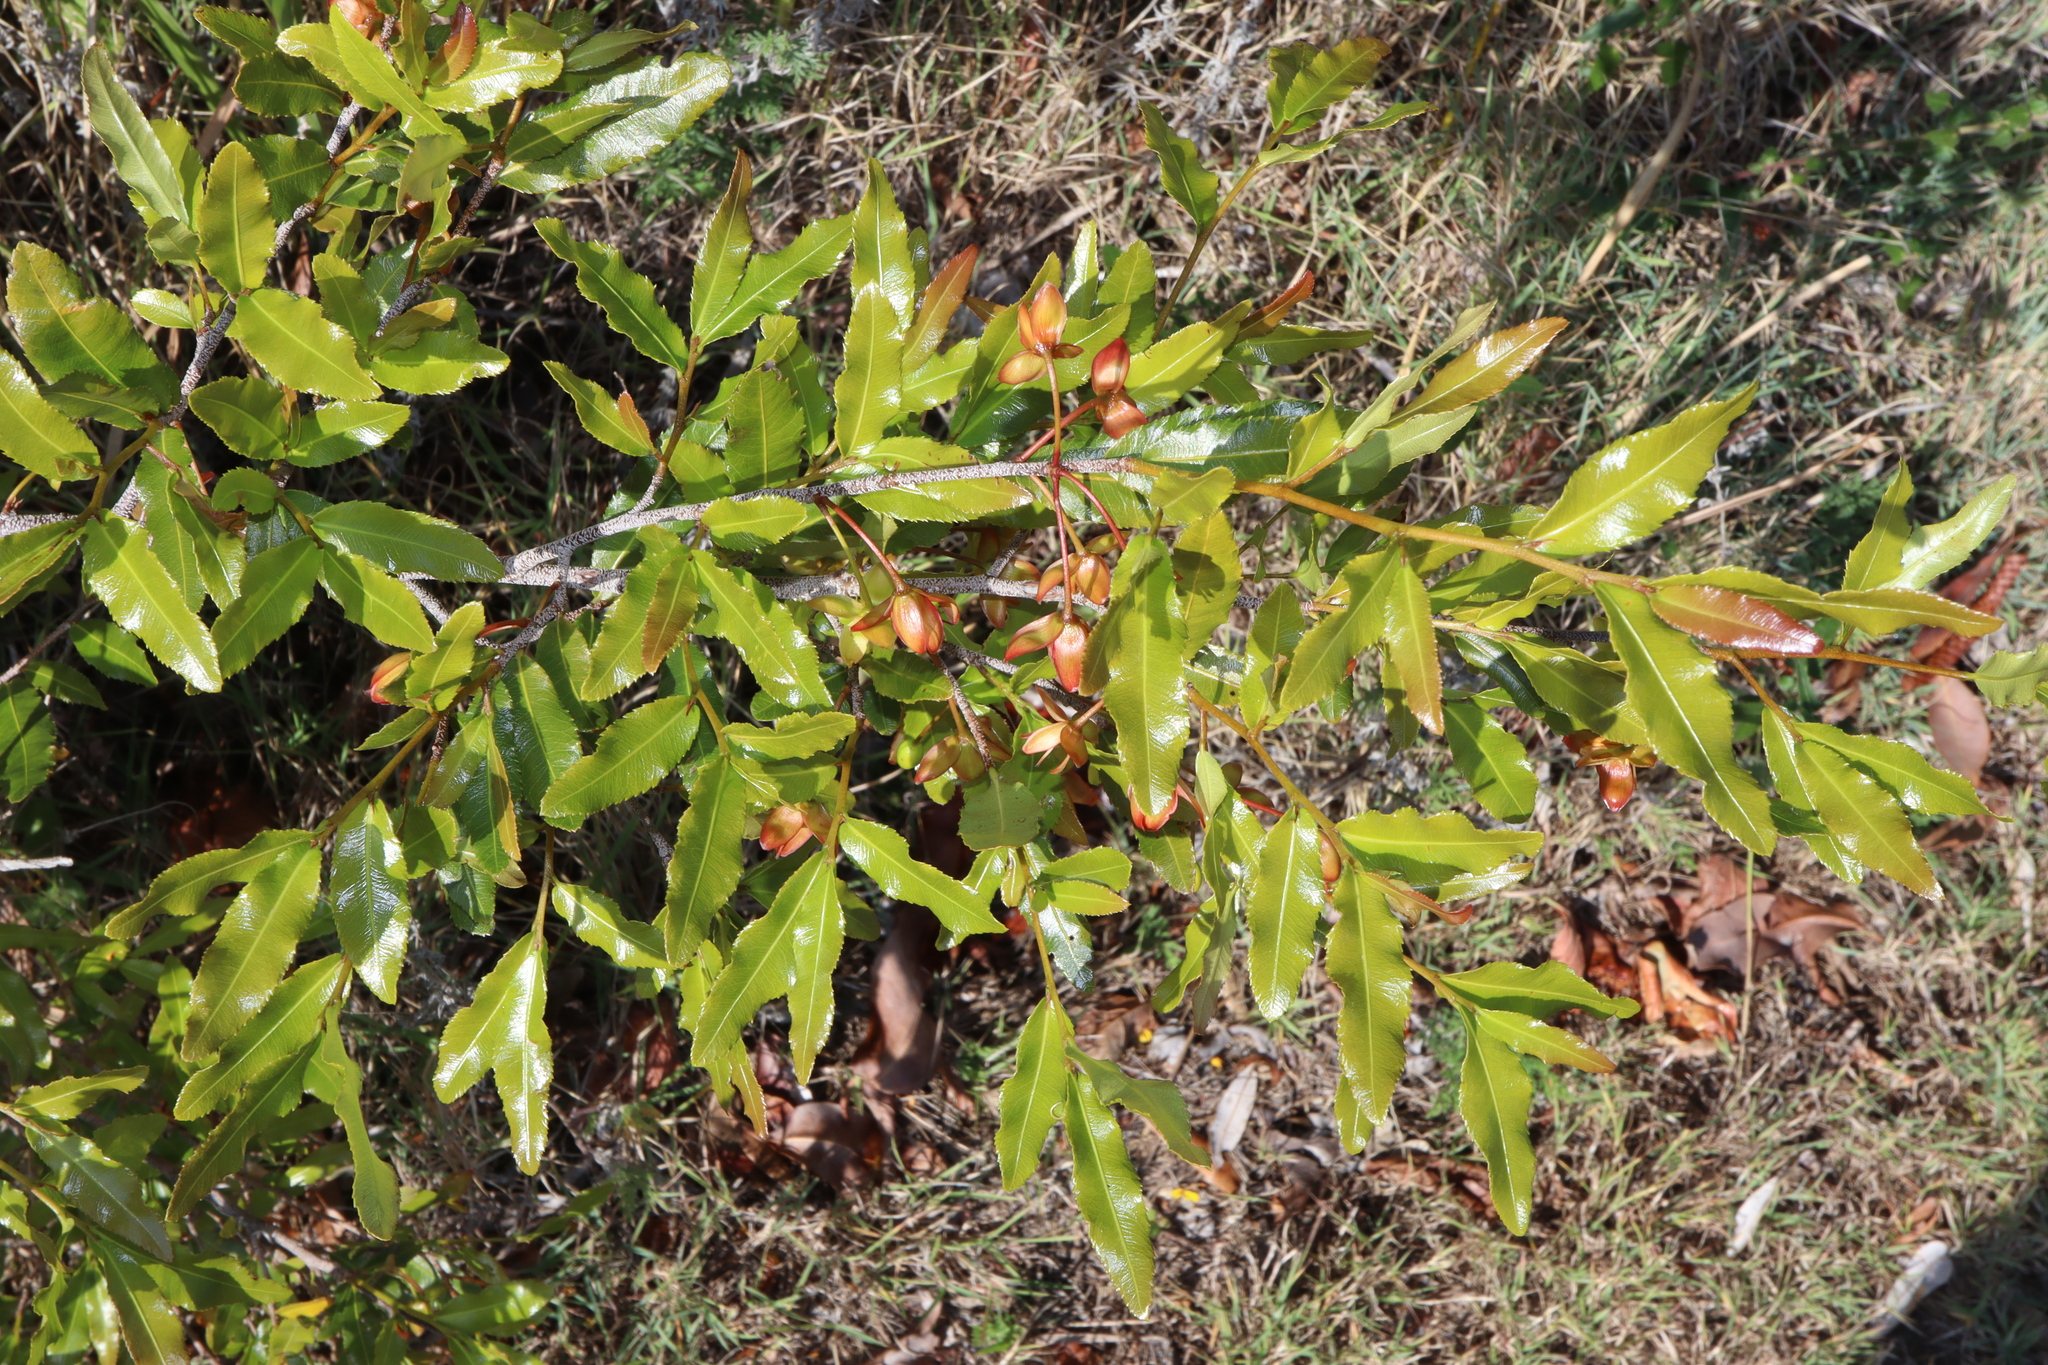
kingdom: Plantae
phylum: Tracheophyta
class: Magnoliopsida
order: Malpighiales
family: Ochnaceae
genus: Ochna
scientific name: Ochna serrulata
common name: Mickey mouse plant
